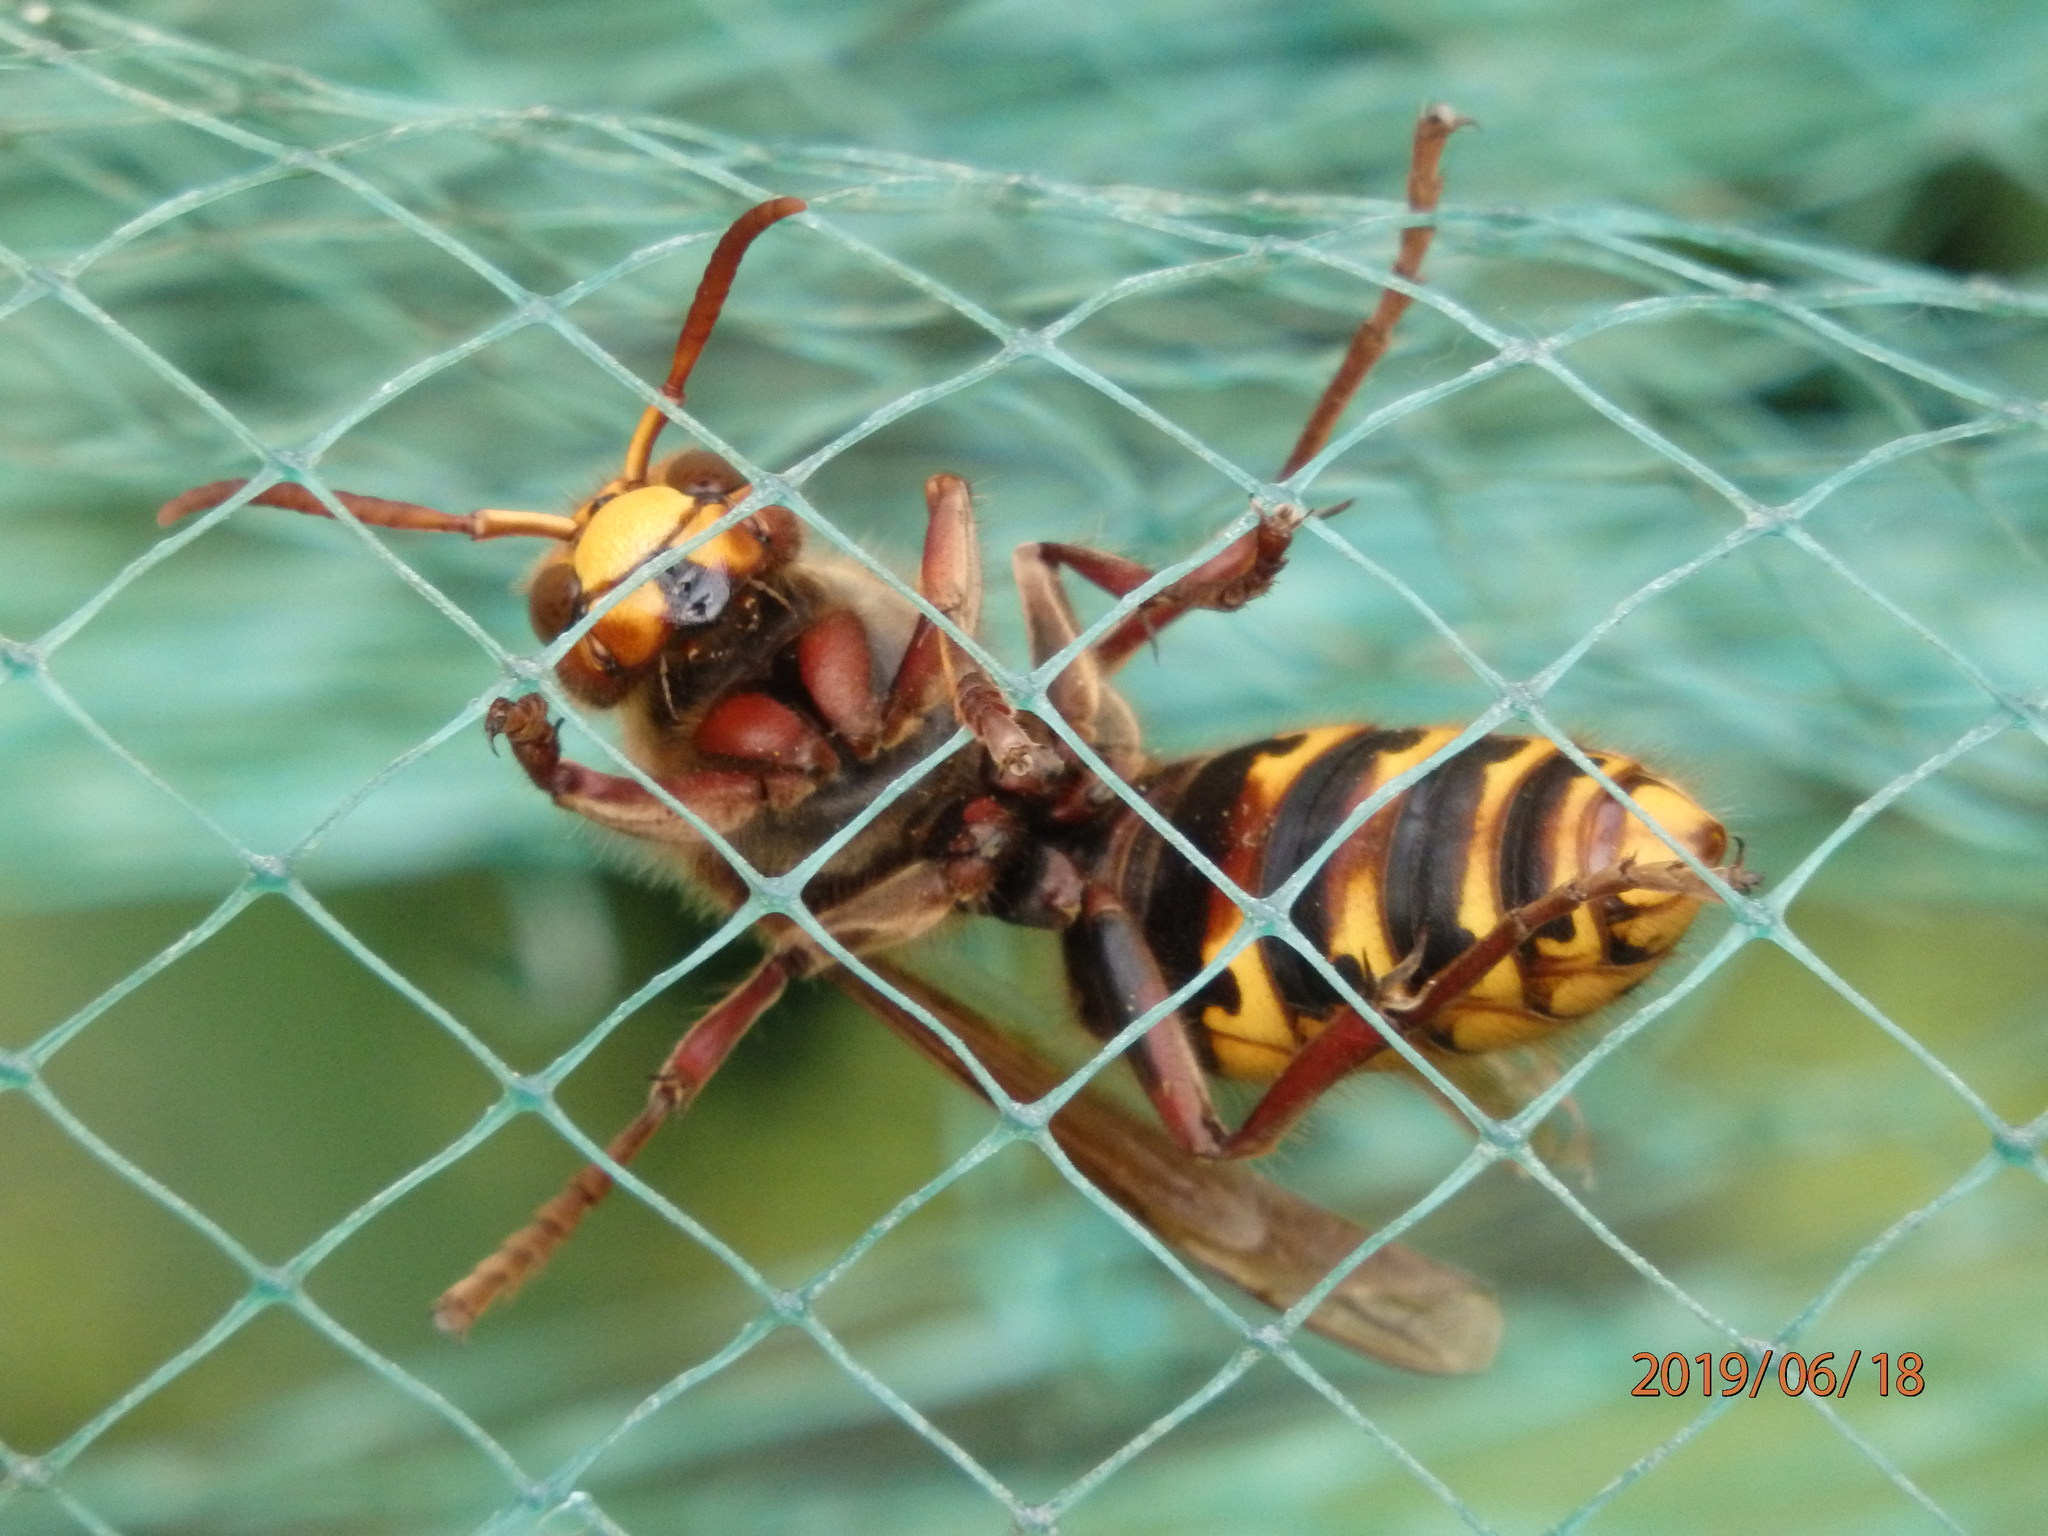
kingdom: Animalia
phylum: Arthropoda
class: Insecta
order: Hymenoptera
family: Vespidae
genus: Vespa
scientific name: Vespa crabro
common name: Hornet
